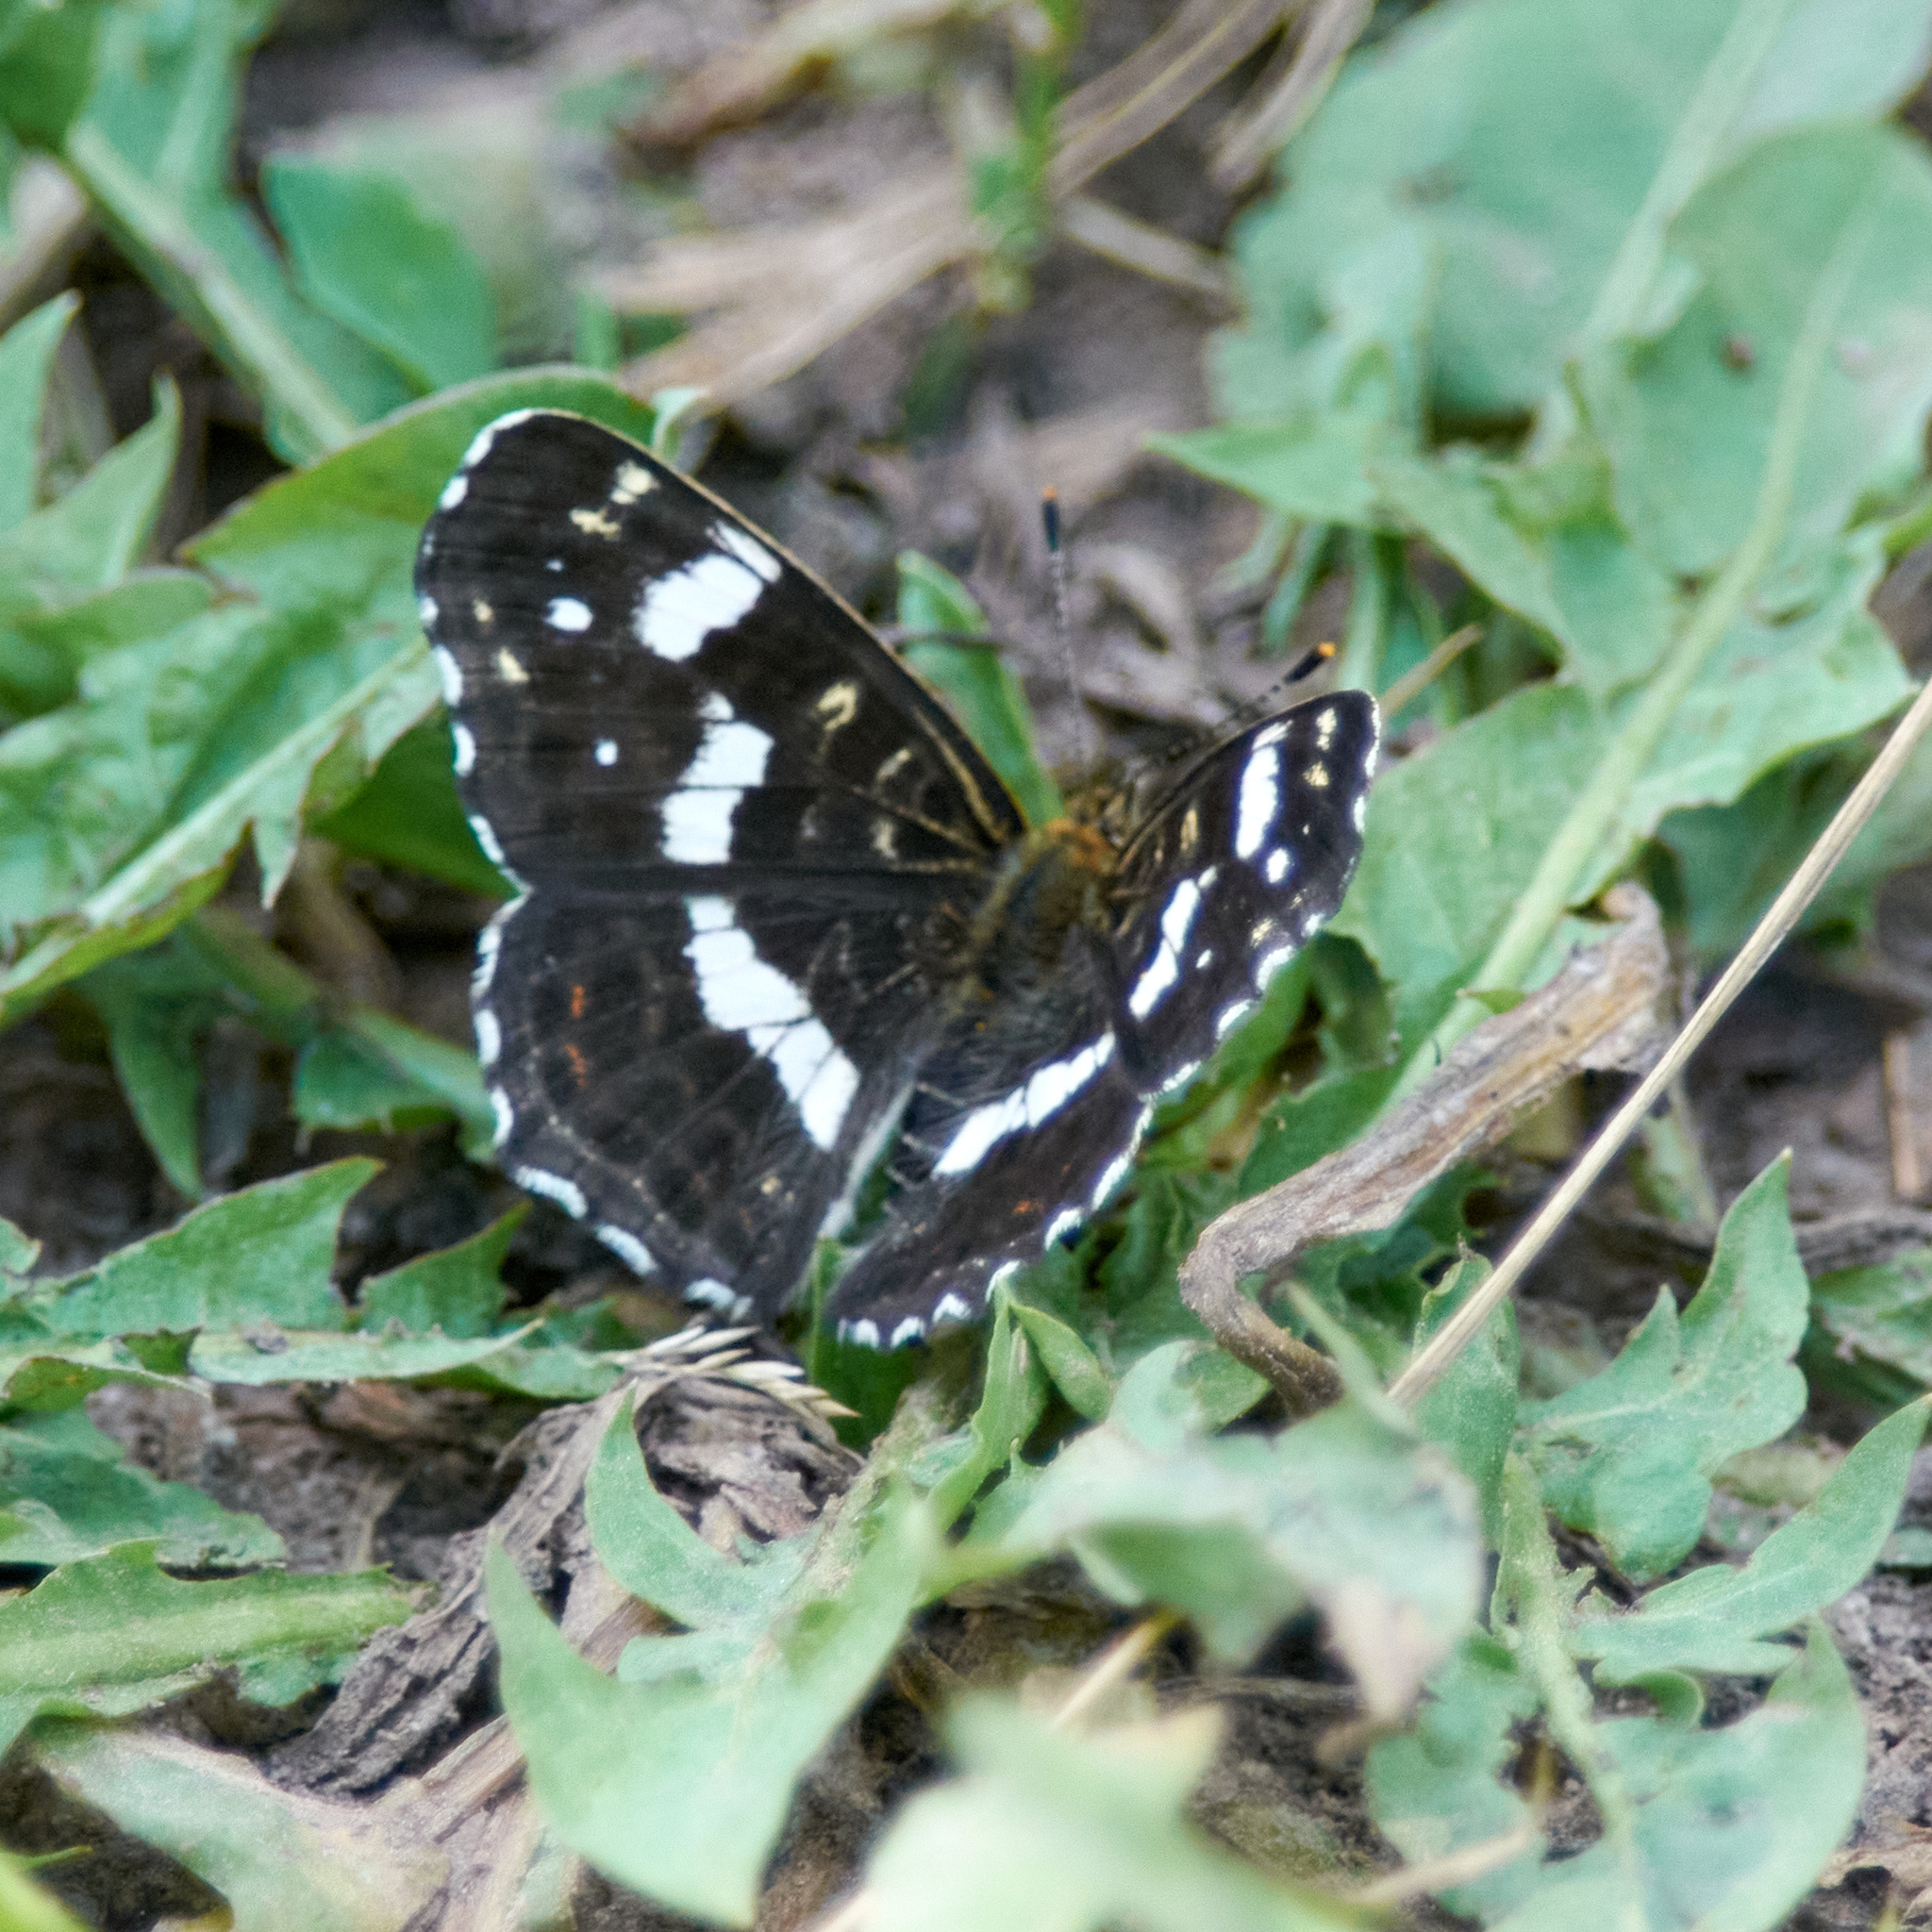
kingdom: Animalia
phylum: Arthropoda
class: Insecta
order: Lepidoptera
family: Nymphalidae
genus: Araschnia
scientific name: Araschnia levana
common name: Map butterfly
